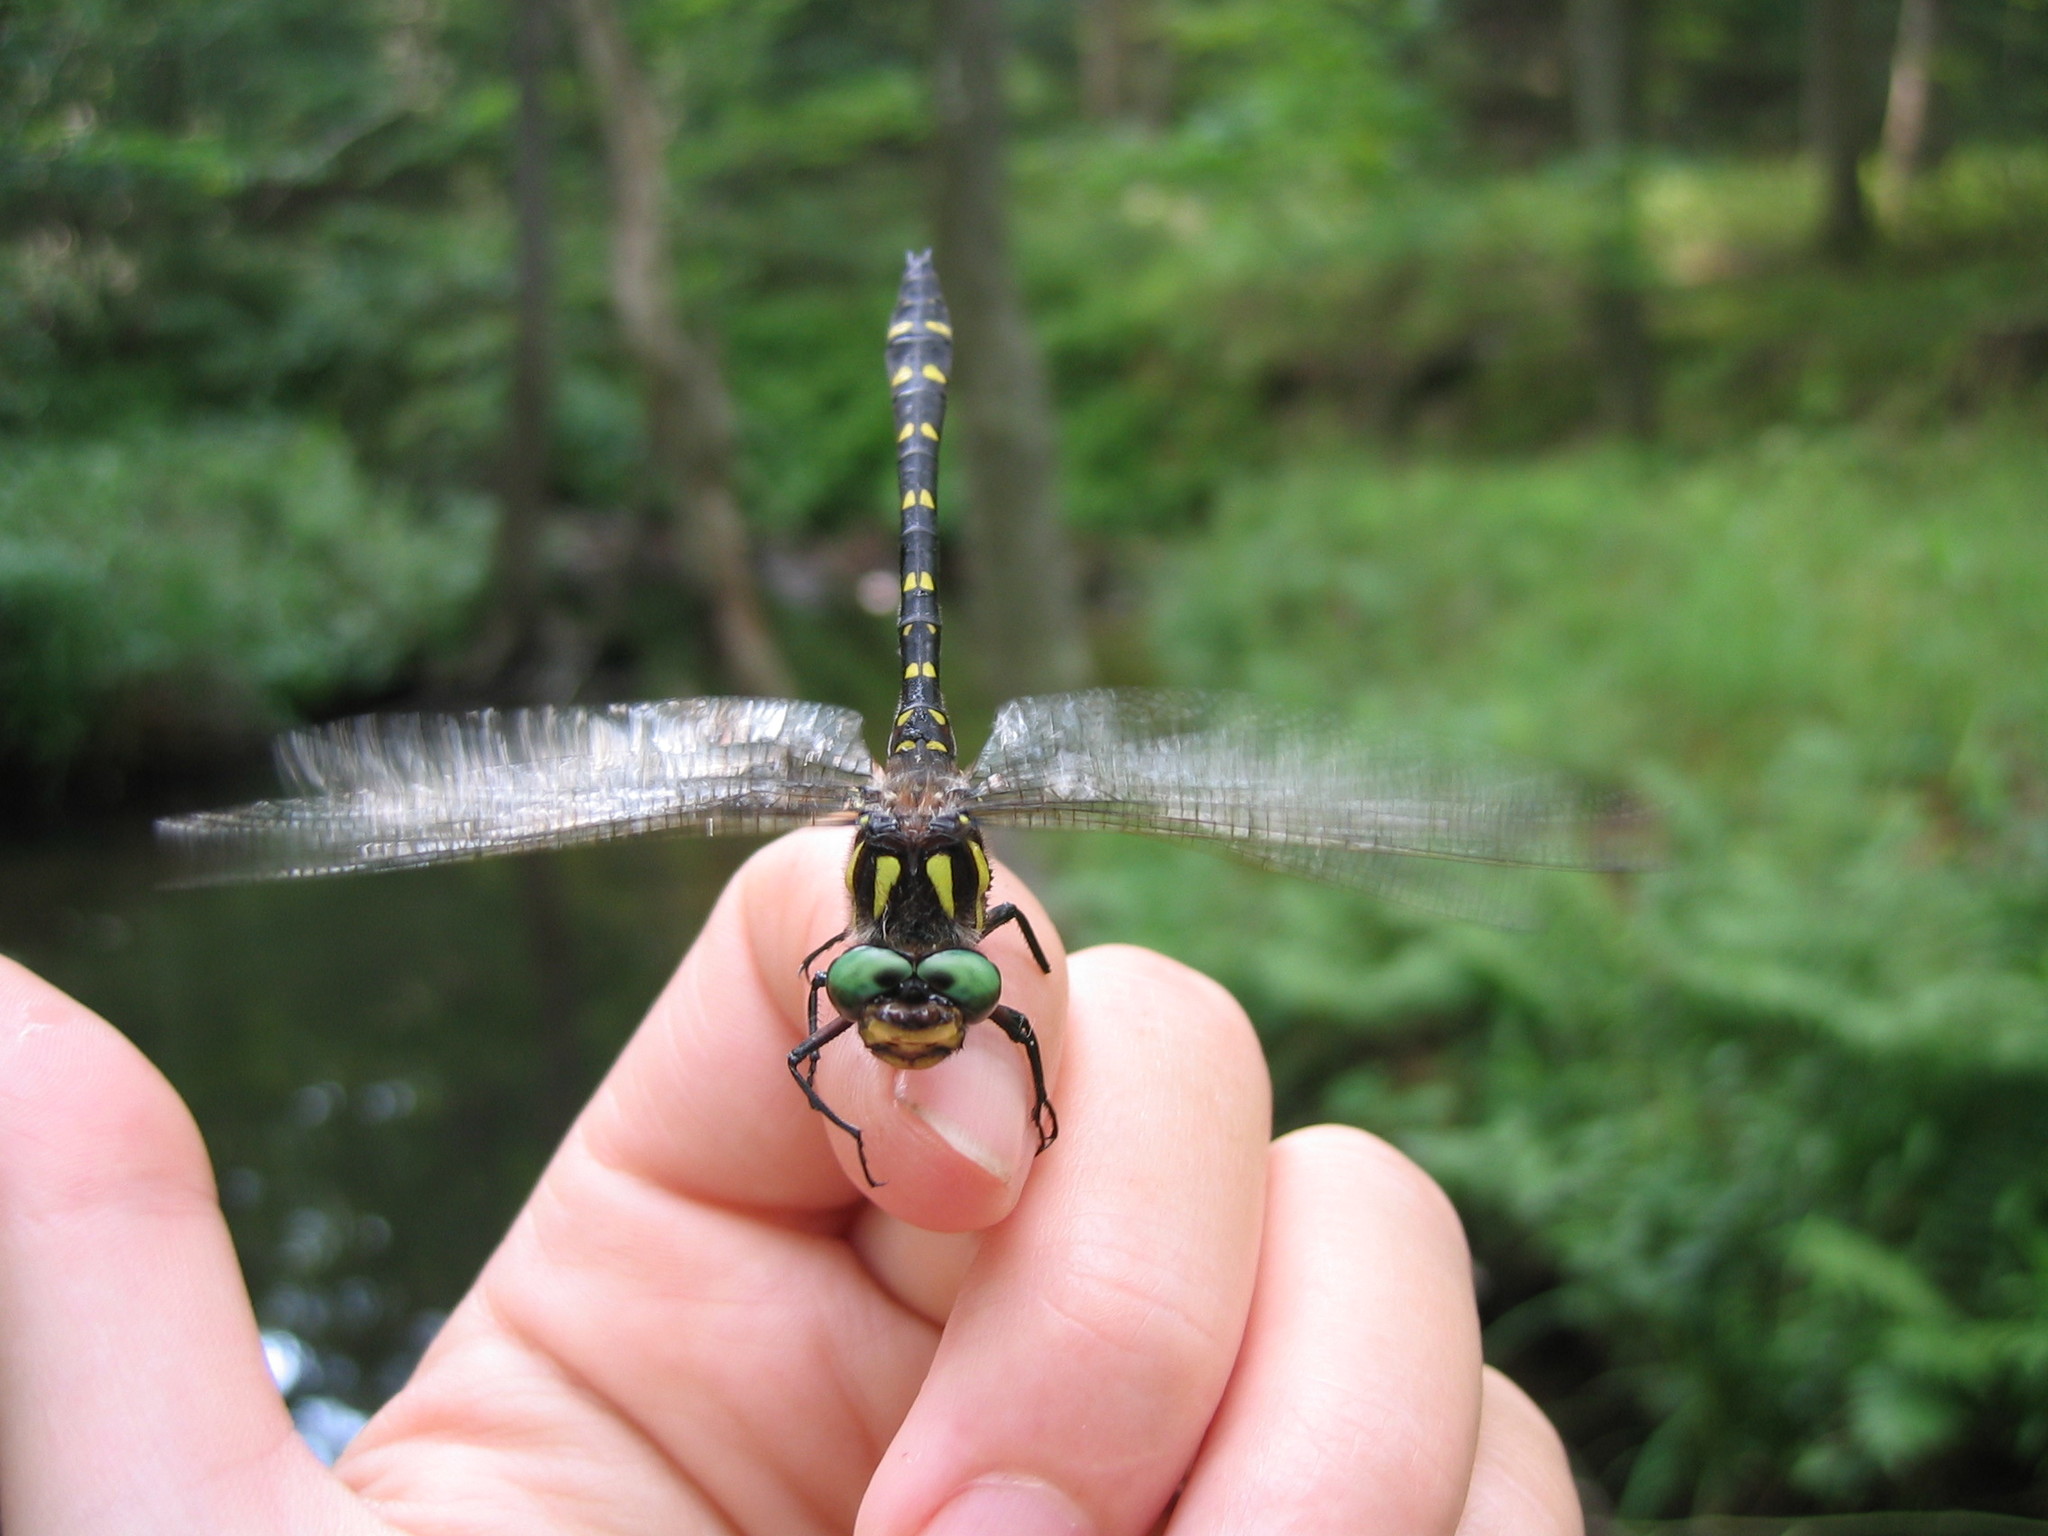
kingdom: Animalia
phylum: Arthropoda
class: Insecta
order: Odonata
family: Cordulegastridae
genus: Cordulegaster
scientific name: Cordulegaster maculata
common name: Twin-spotted spiketail
